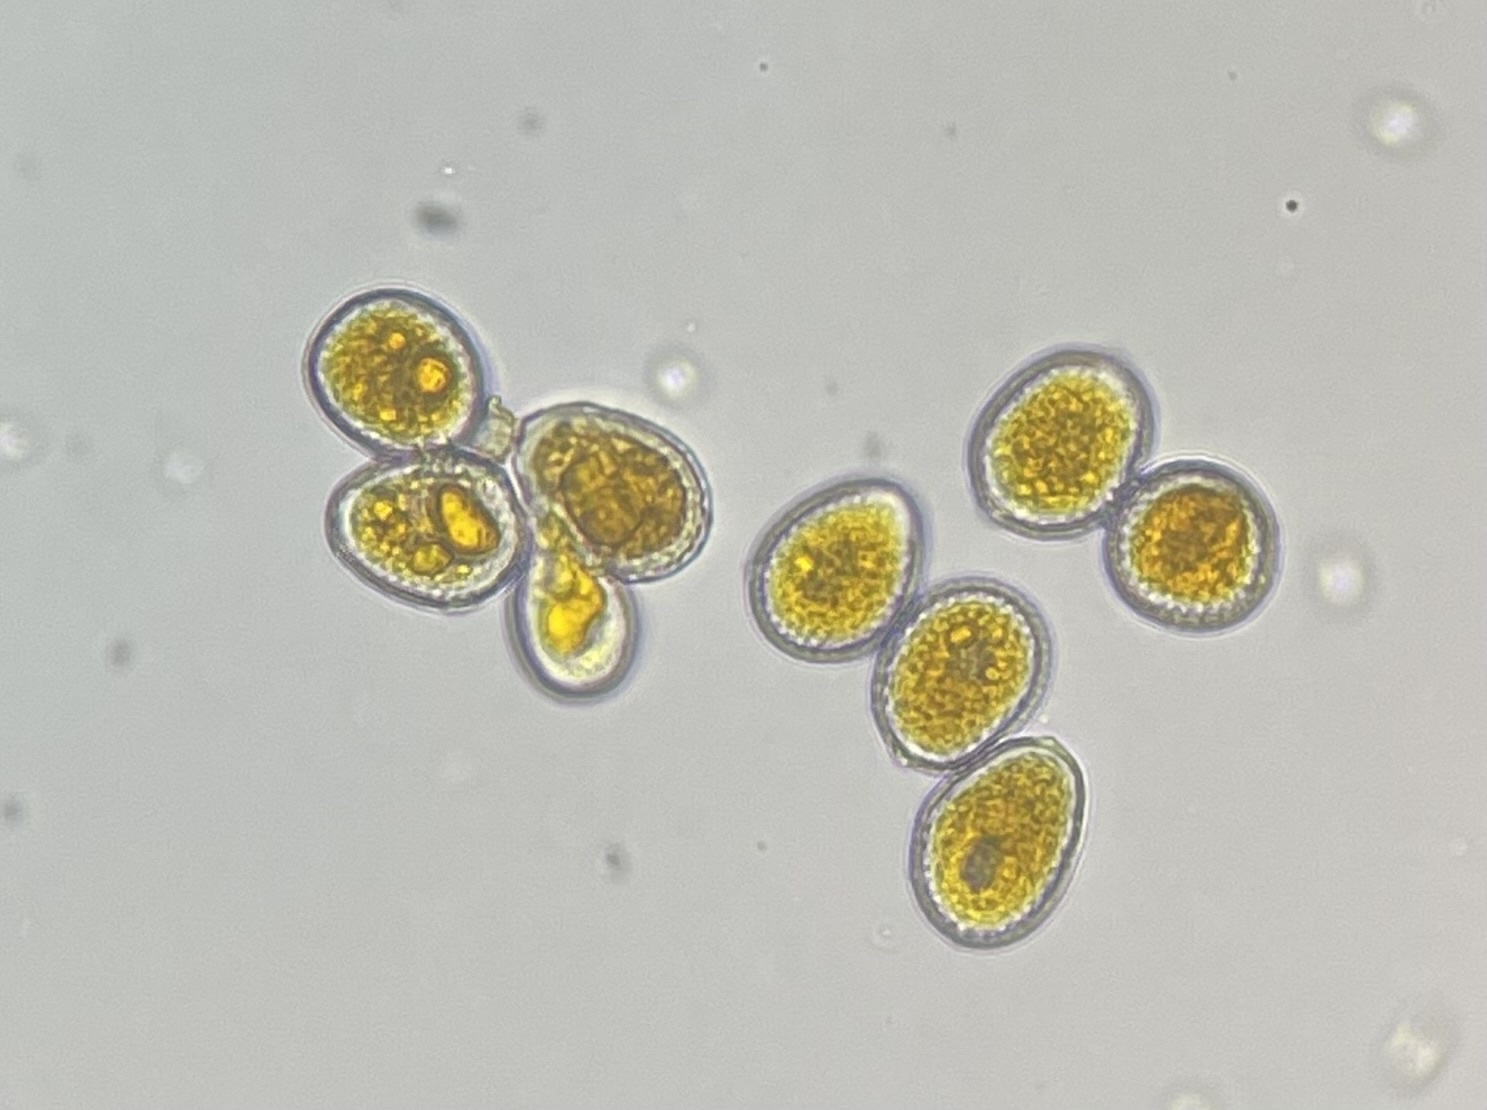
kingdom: Fungi
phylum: Basidiomycota
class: Pucciniomycetes
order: Pucciniales
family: Phragmidiaceae
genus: Phragmidium
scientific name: Phragmidium violaceum
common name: Violet bramble rust
